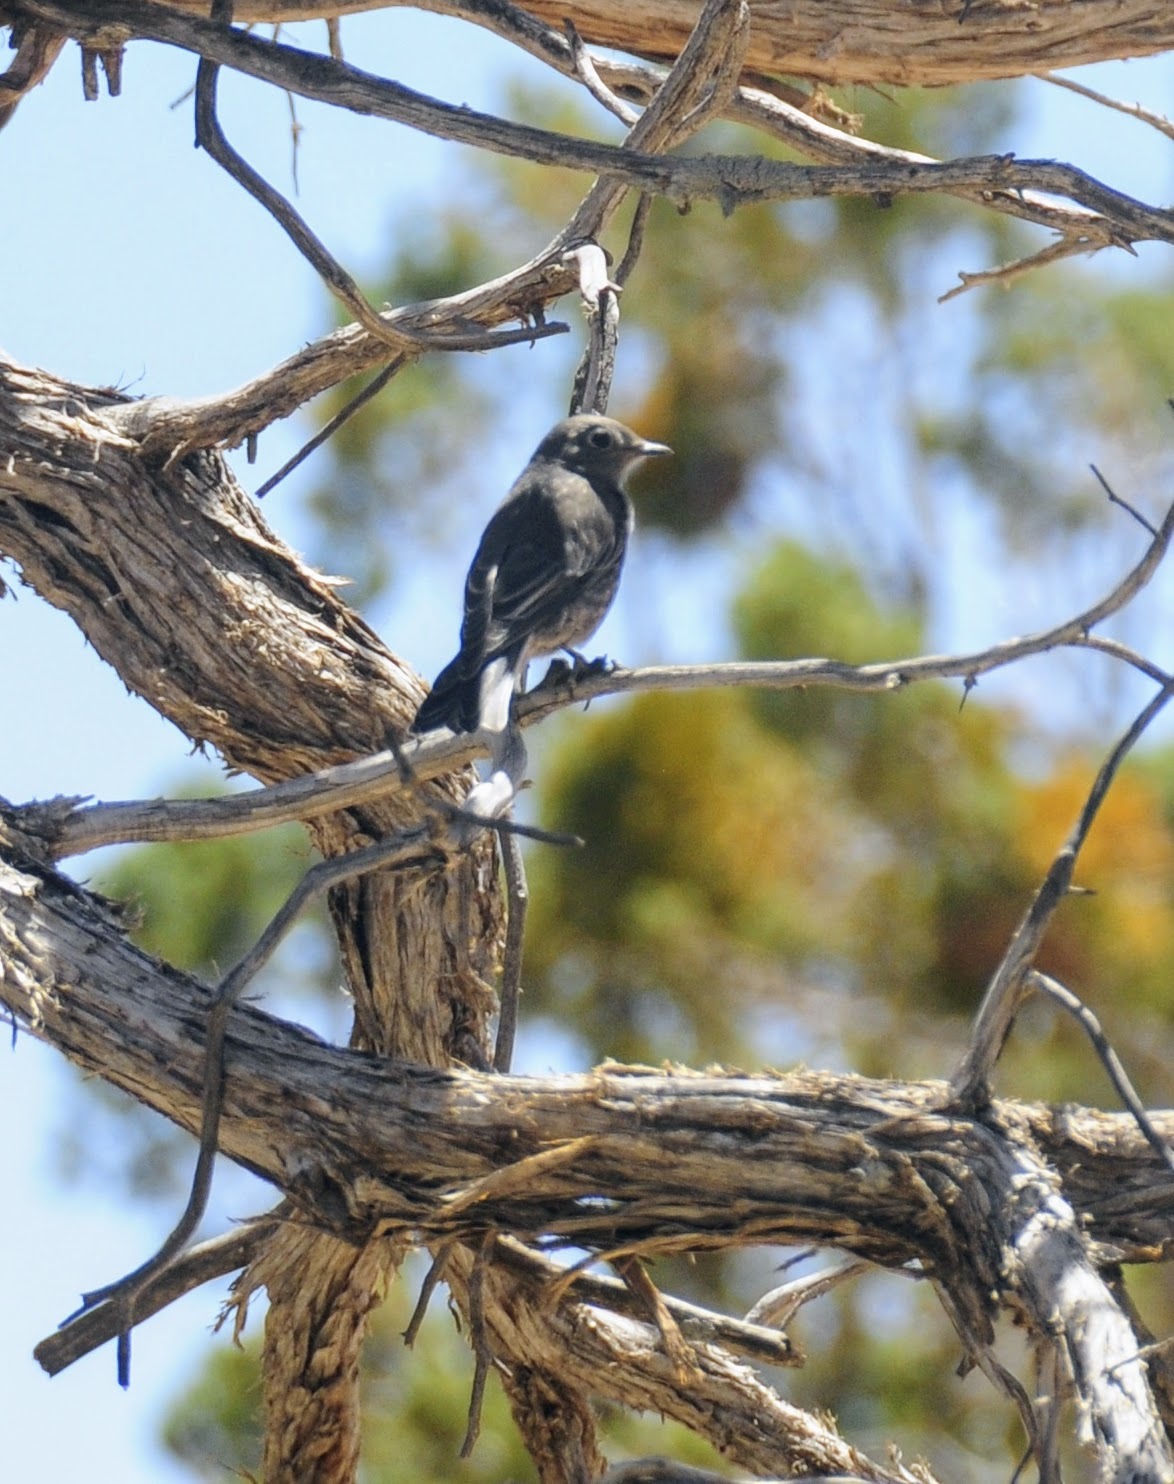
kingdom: Animalia
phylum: Chordata
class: Aves
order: Passeriformes
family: Turdidae
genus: Myadestes
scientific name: Myadestes townsendi
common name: Townsend's solitaire
